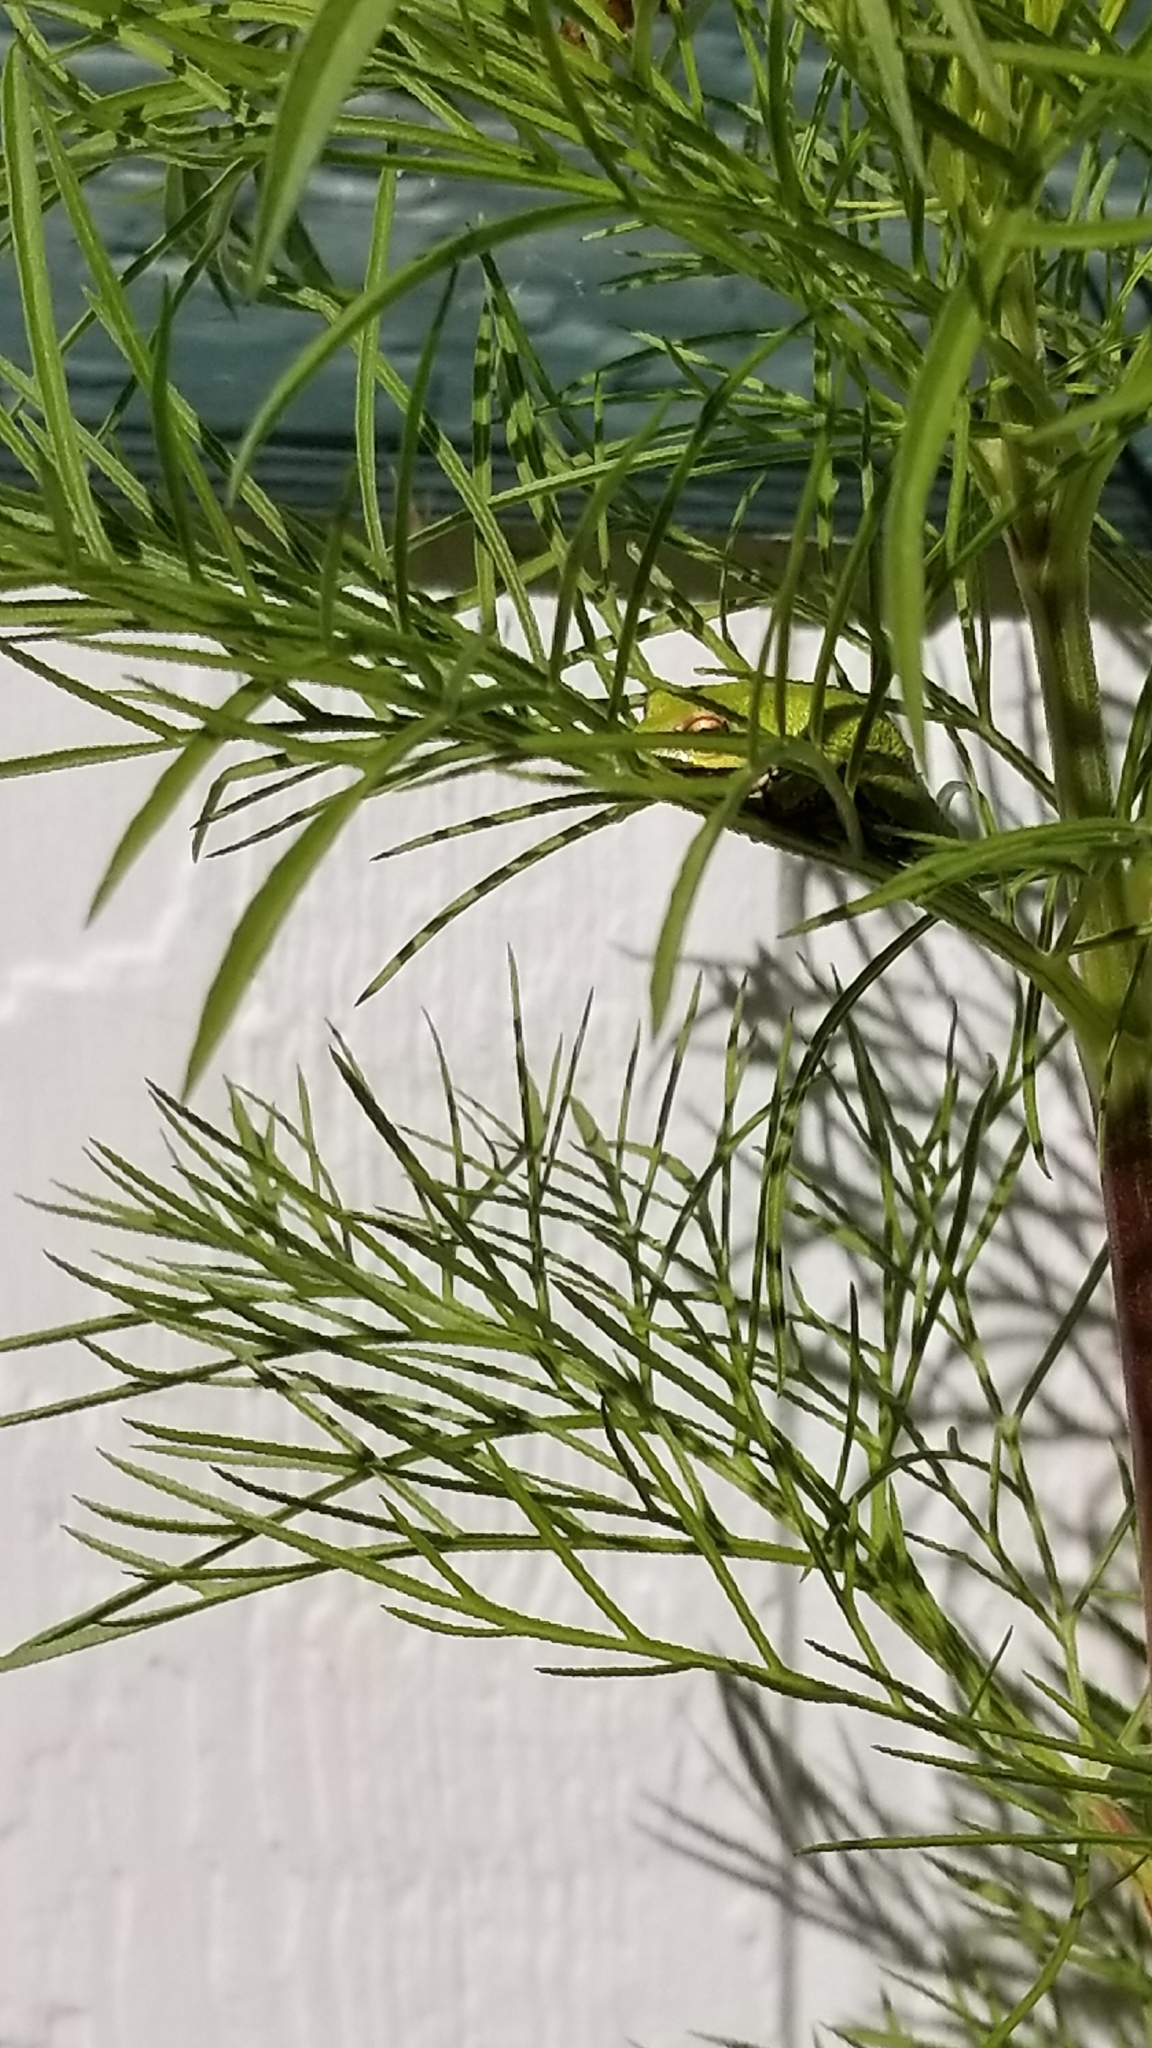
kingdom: Animalia
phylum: Chordata
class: Amphibia
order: Anura
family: Hylidae
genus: Pseudacris
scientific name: Pseudacris regilla
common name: Pacific chorus frog
